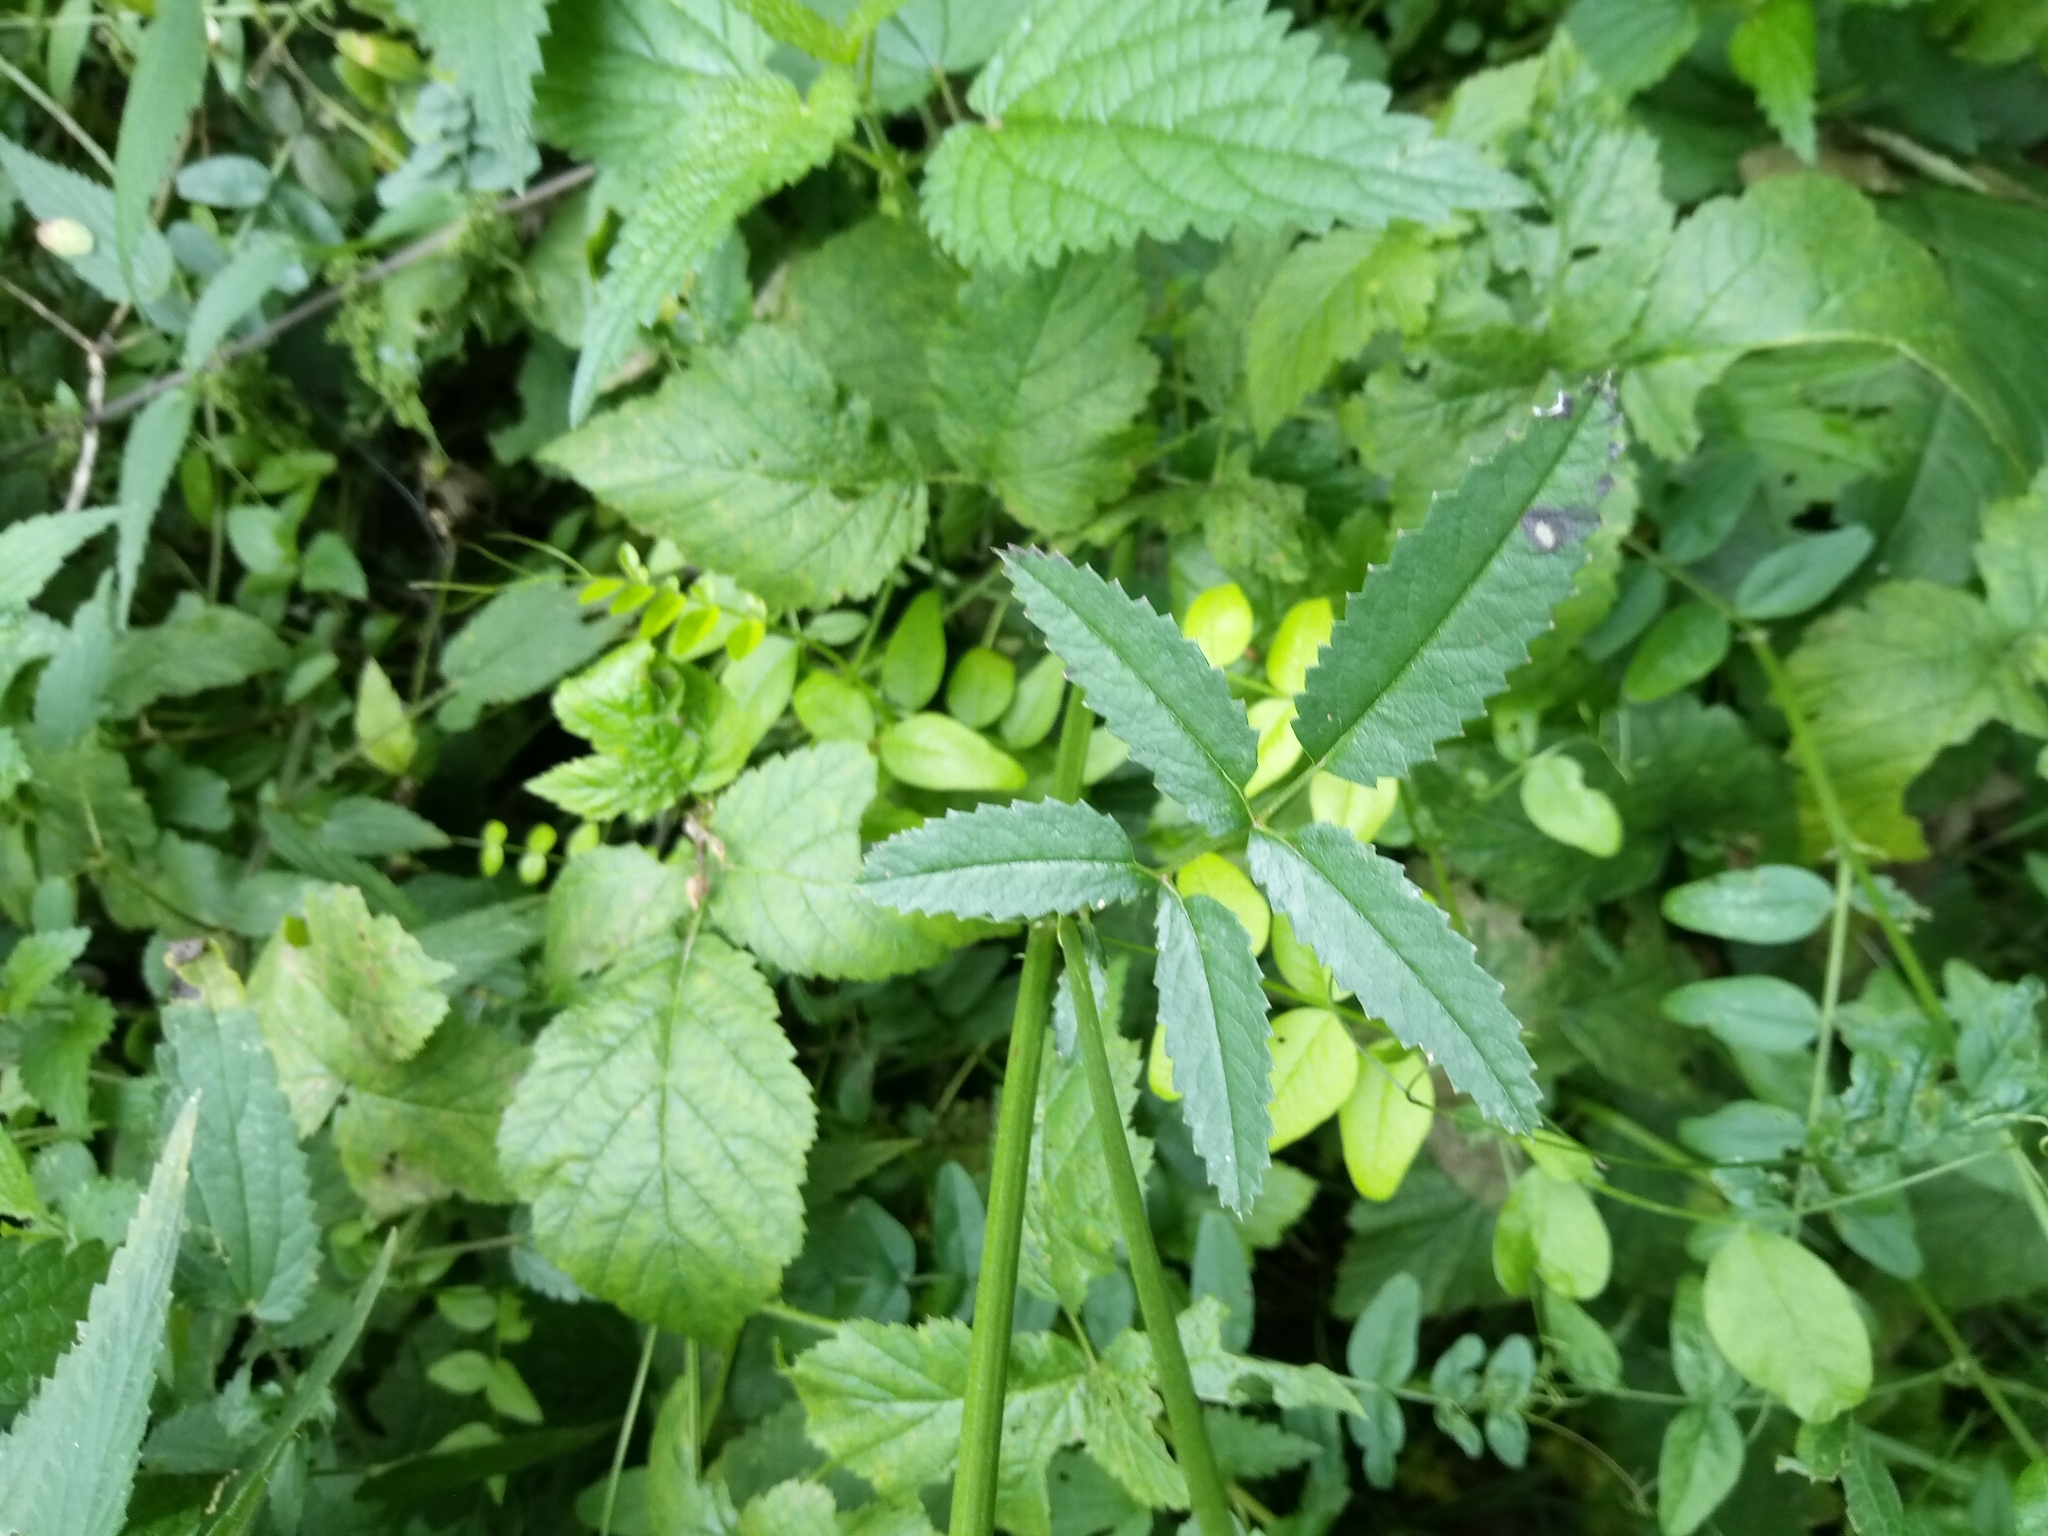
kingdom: Plantae
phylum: Tracheophyta
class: Magnoliopsida
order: Rosales
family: Rosaceae
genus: Sanguisorba
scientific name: Sanguisorba officinalis
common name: Great burnet
